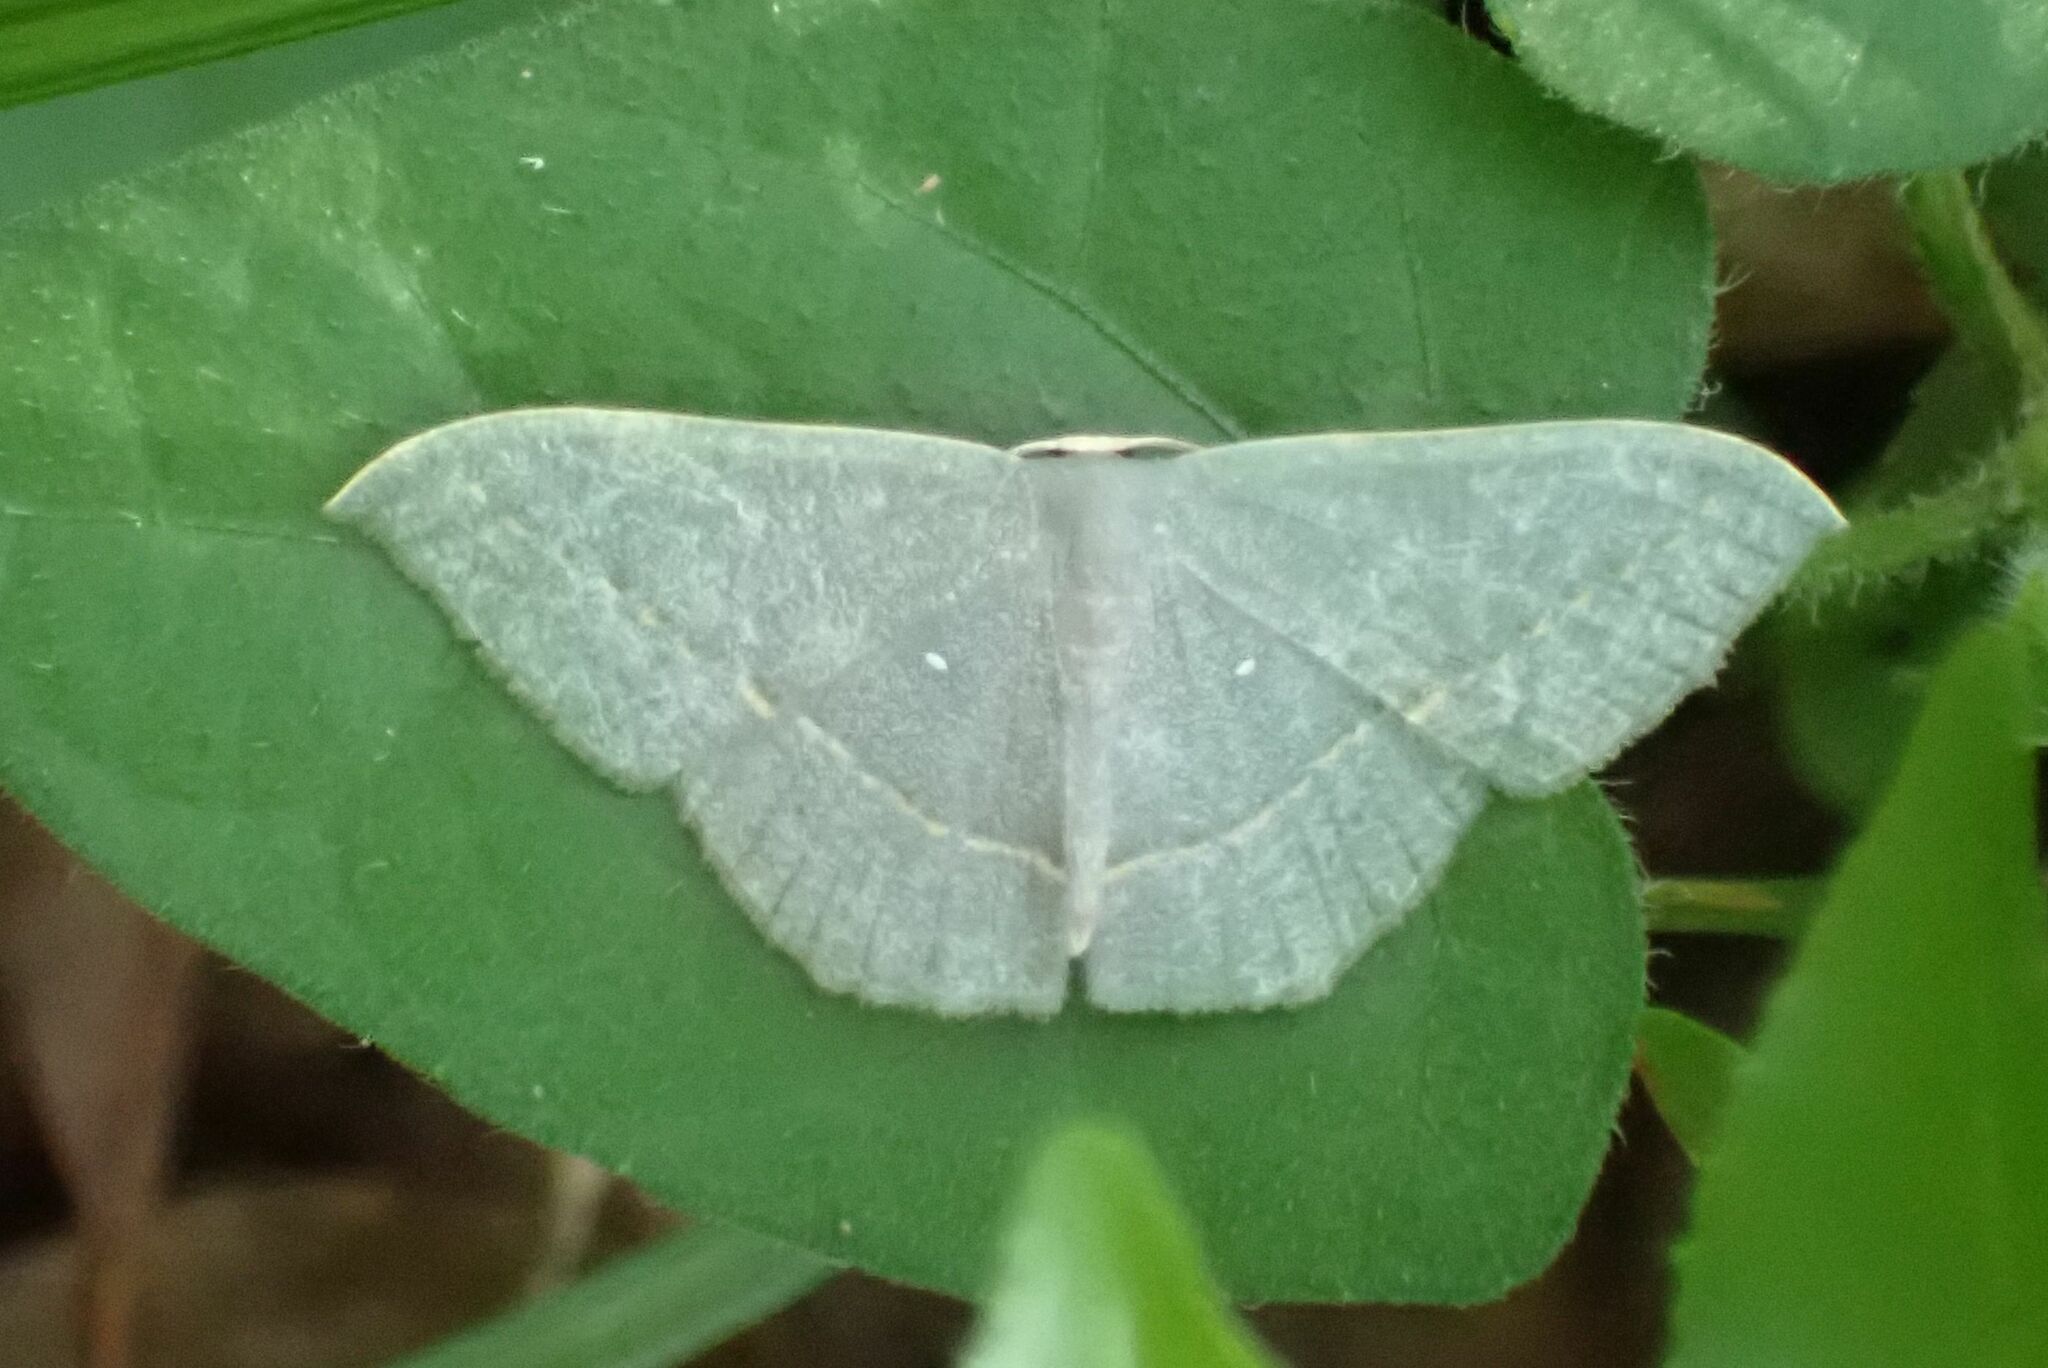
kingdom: Animalia
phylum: Arthropoda
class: Insecta
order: Lepidoptera
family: Geometridae
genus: Traminda
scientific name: Traminda obversata
